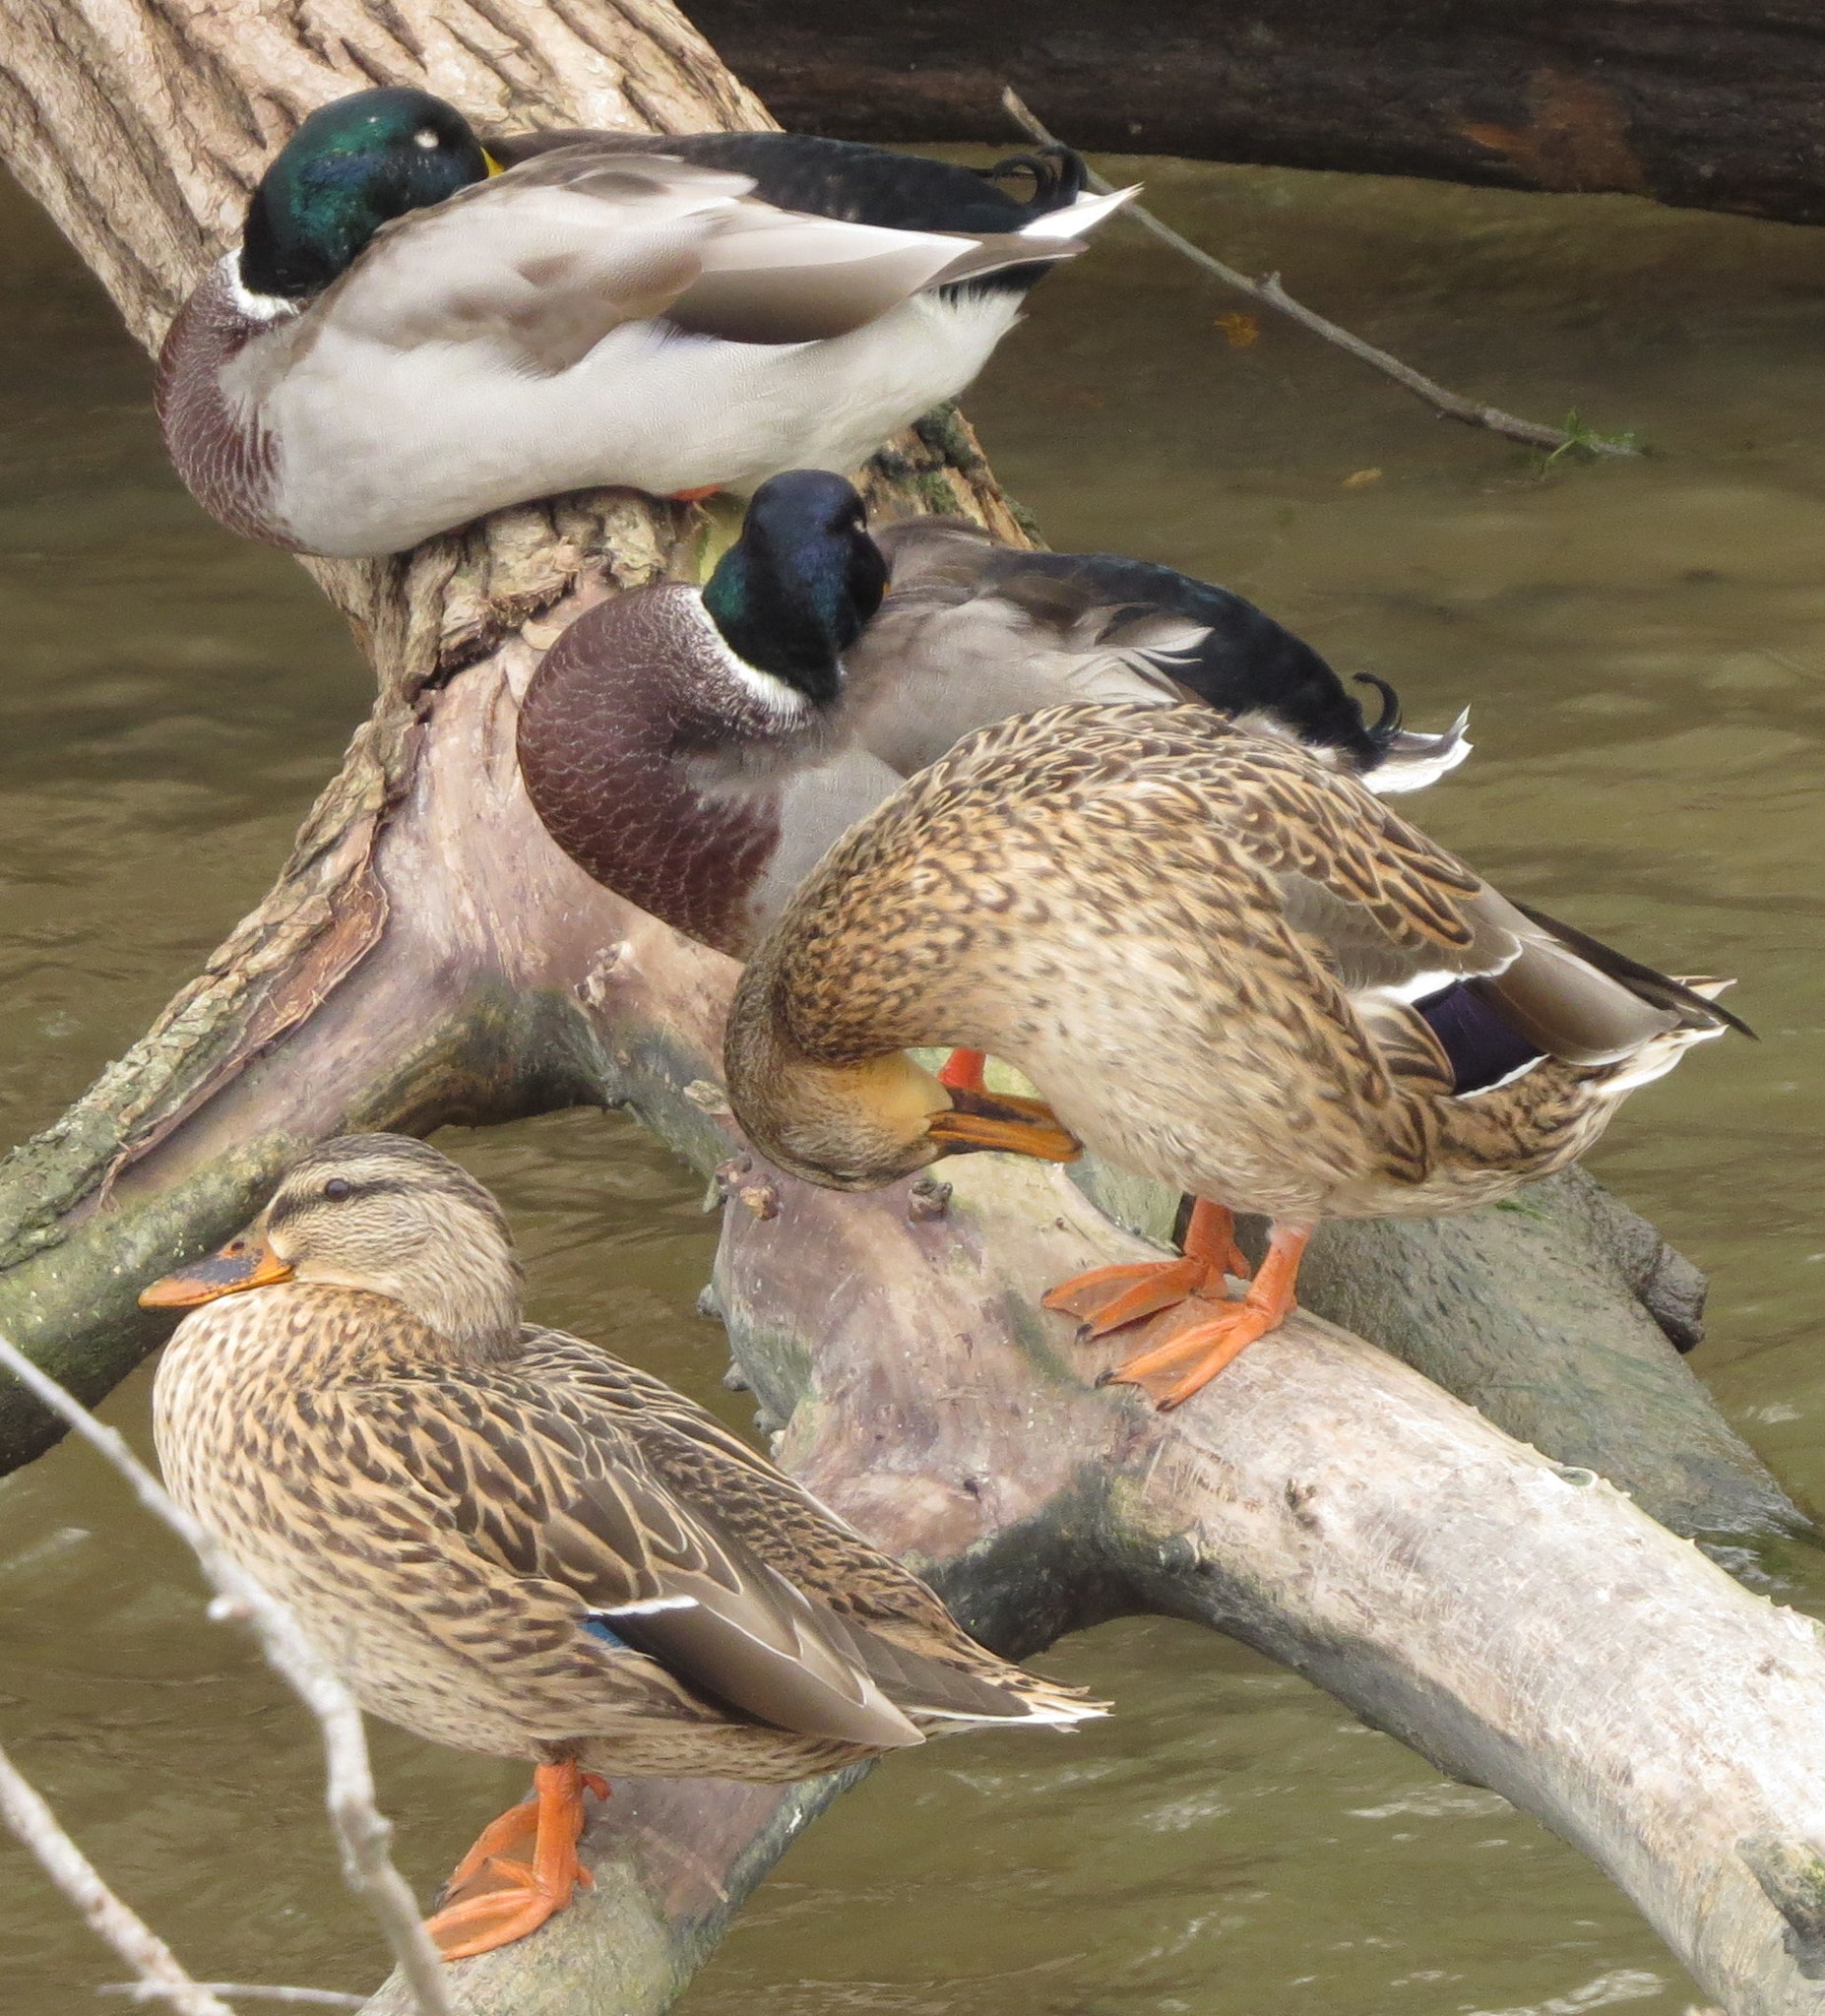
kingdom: Animalia
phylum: Chordata
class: Aves
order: Anseriformes
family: Anatidae
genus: Anas
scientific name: Anas platyrhynchos
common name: Mallard
